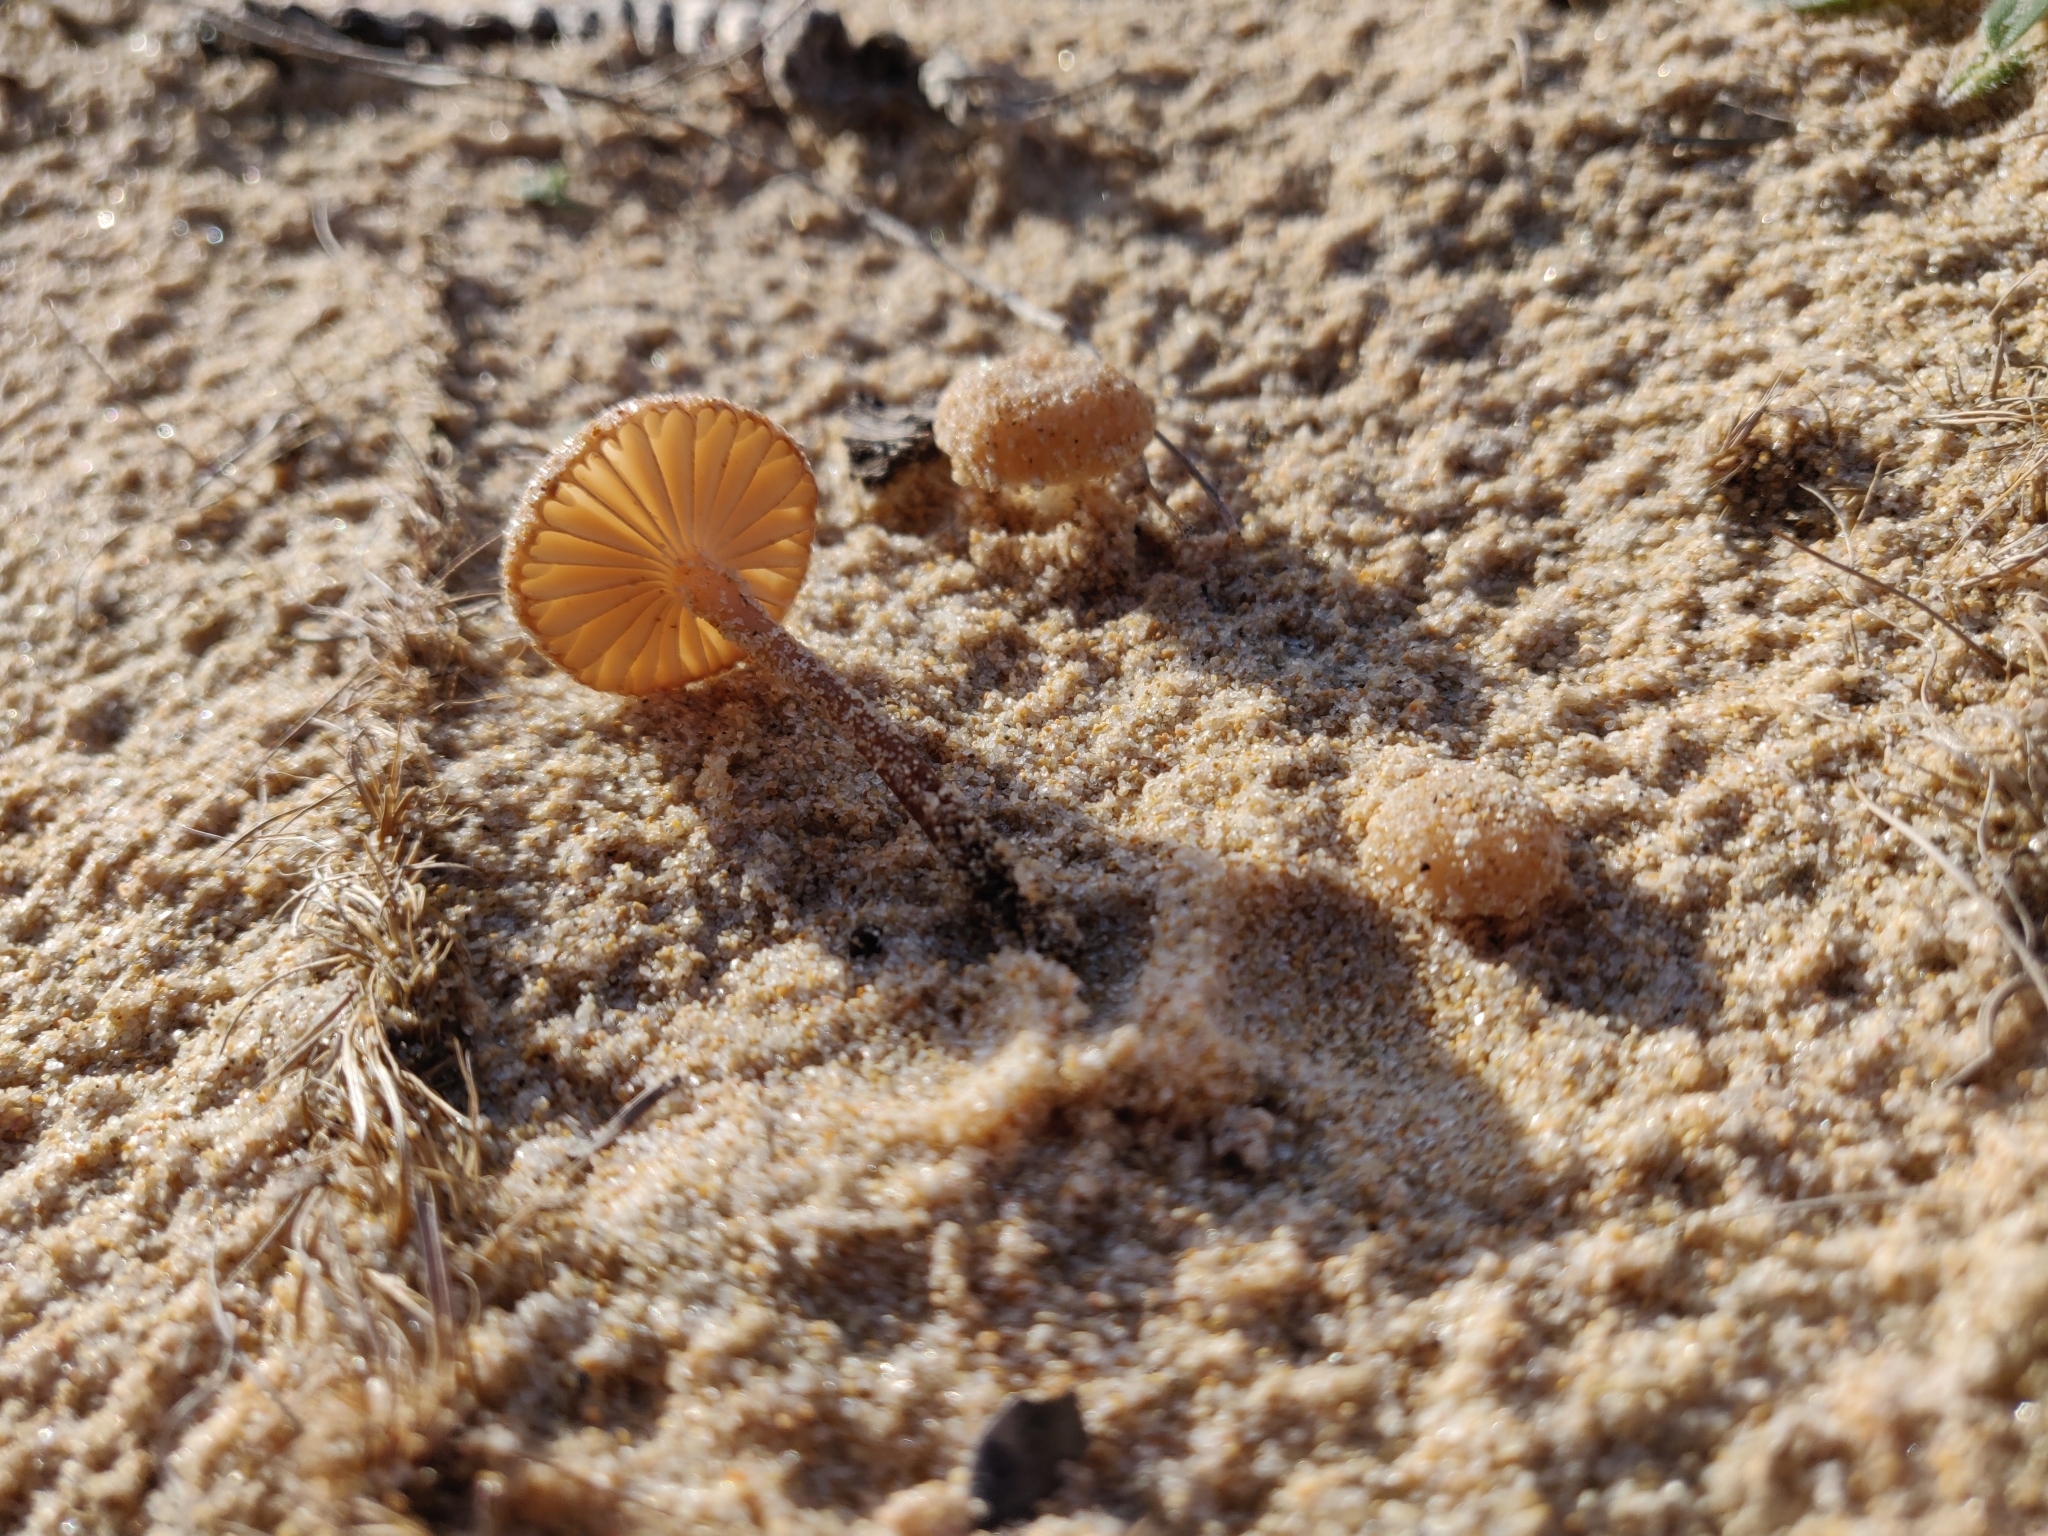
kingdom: Fungi
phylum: Basidiomycota
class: Agaricomycetes
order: Agaricales
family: Physalacriaceae
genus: Laccariopsis
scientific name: Laccariopsis mediterranea
